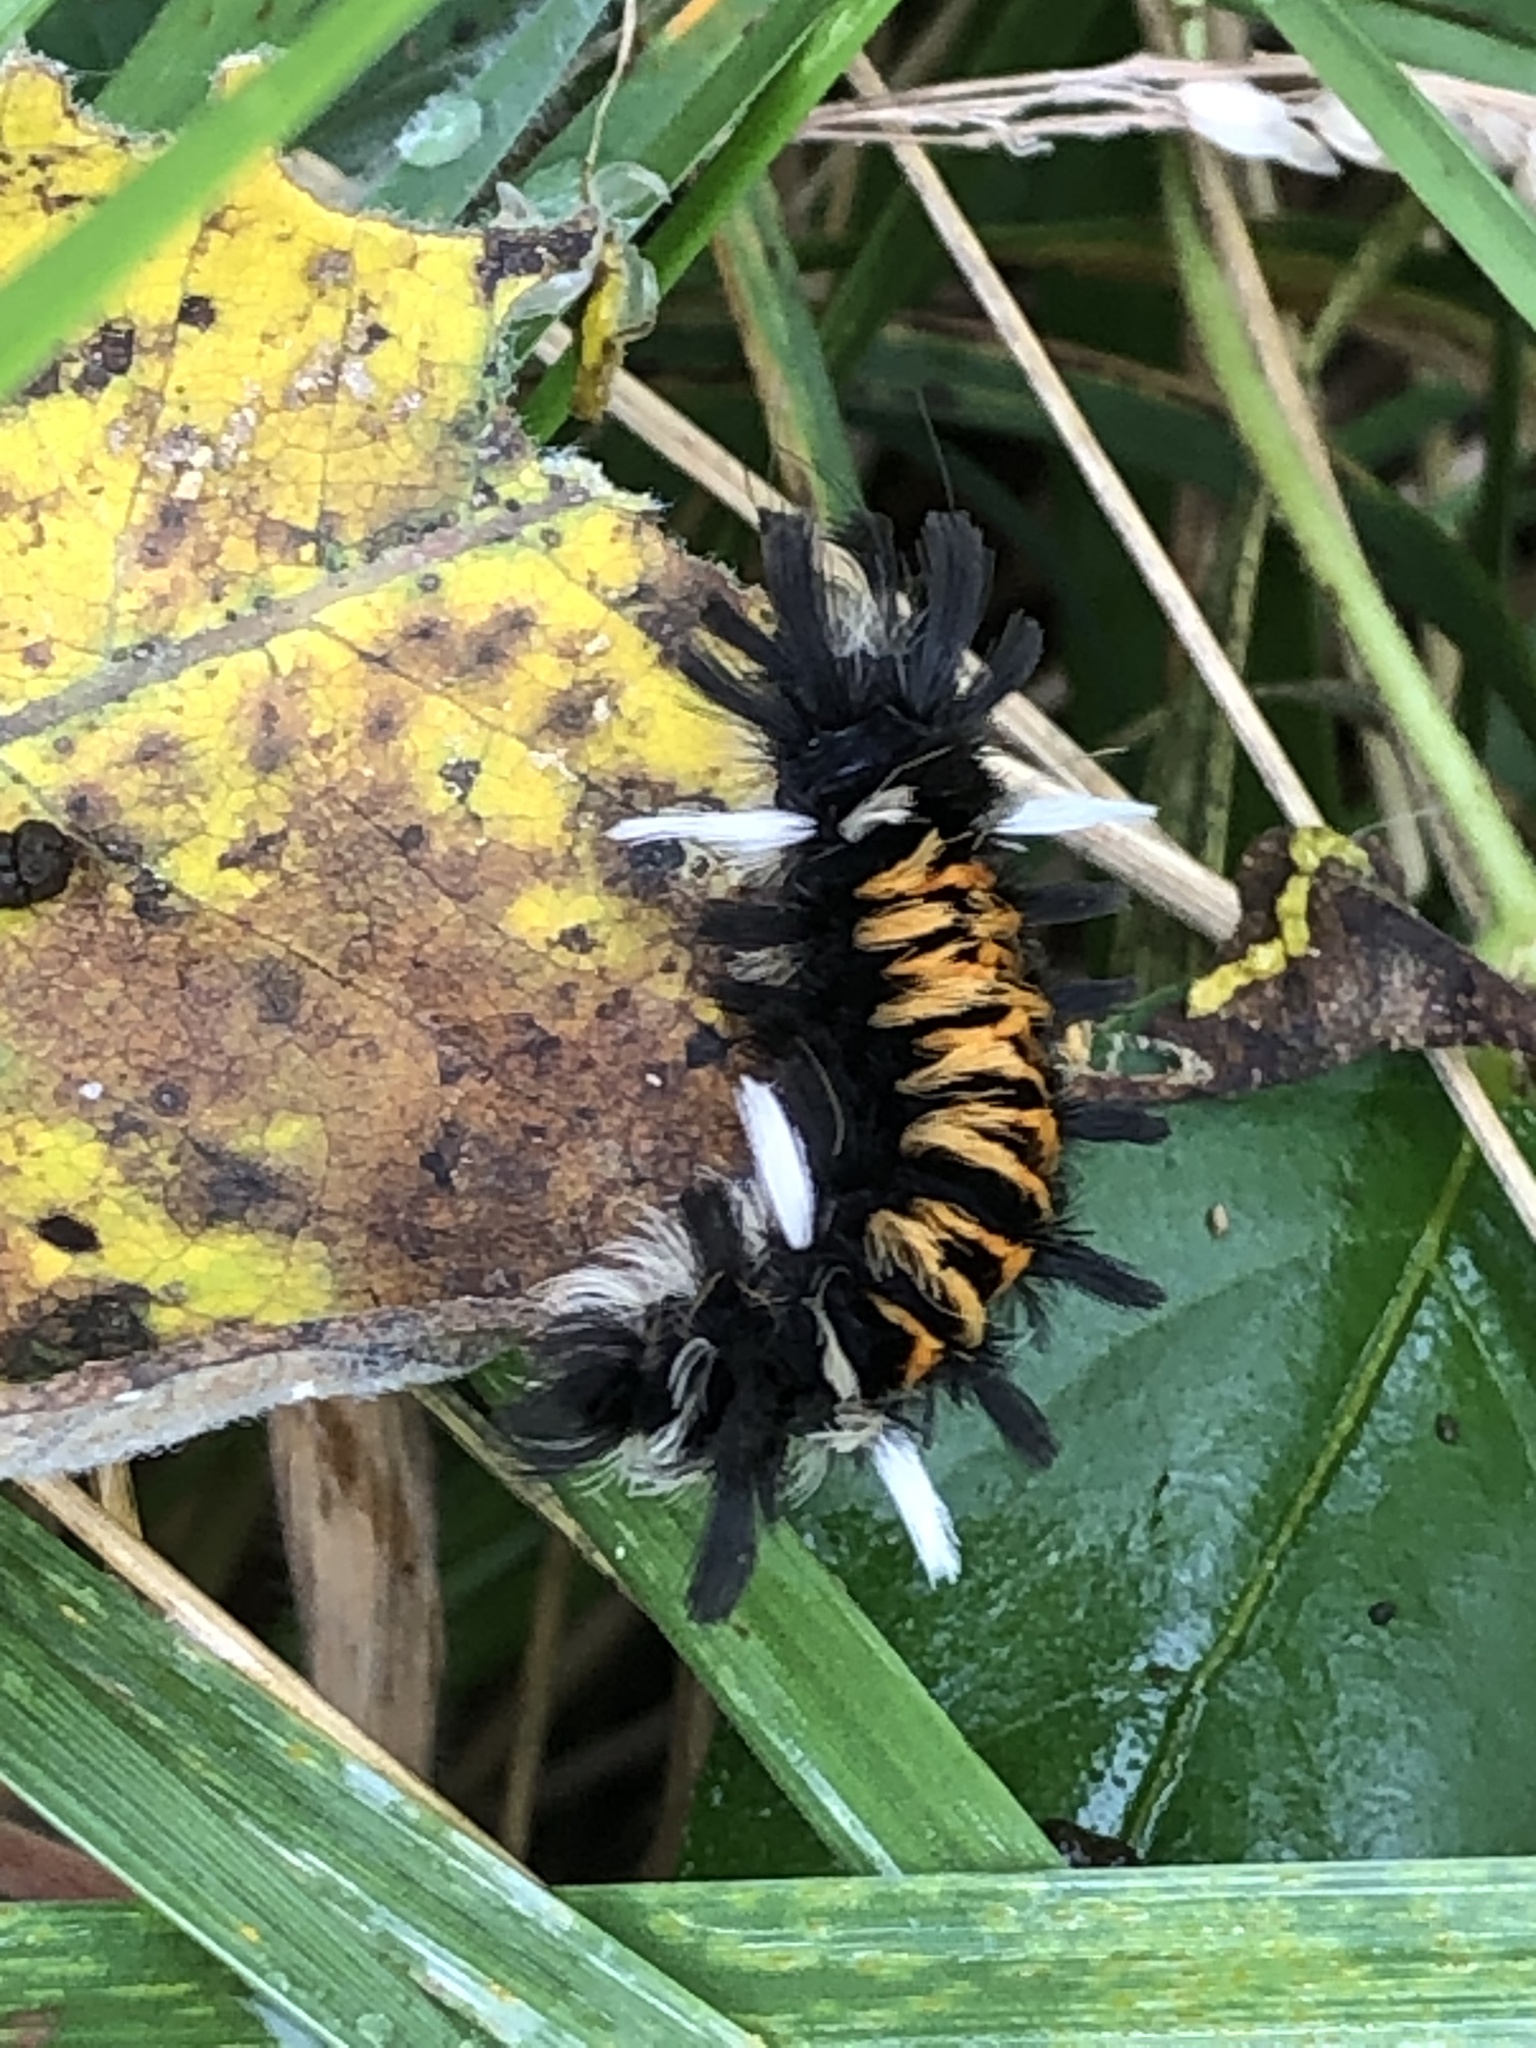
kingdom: Animalia
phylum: Arthropoda
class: Insecta
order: Lepidoptera
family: Erebidae
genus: Euchaetes
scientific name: Euchaetes egle
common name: Milkweed tussock moth
